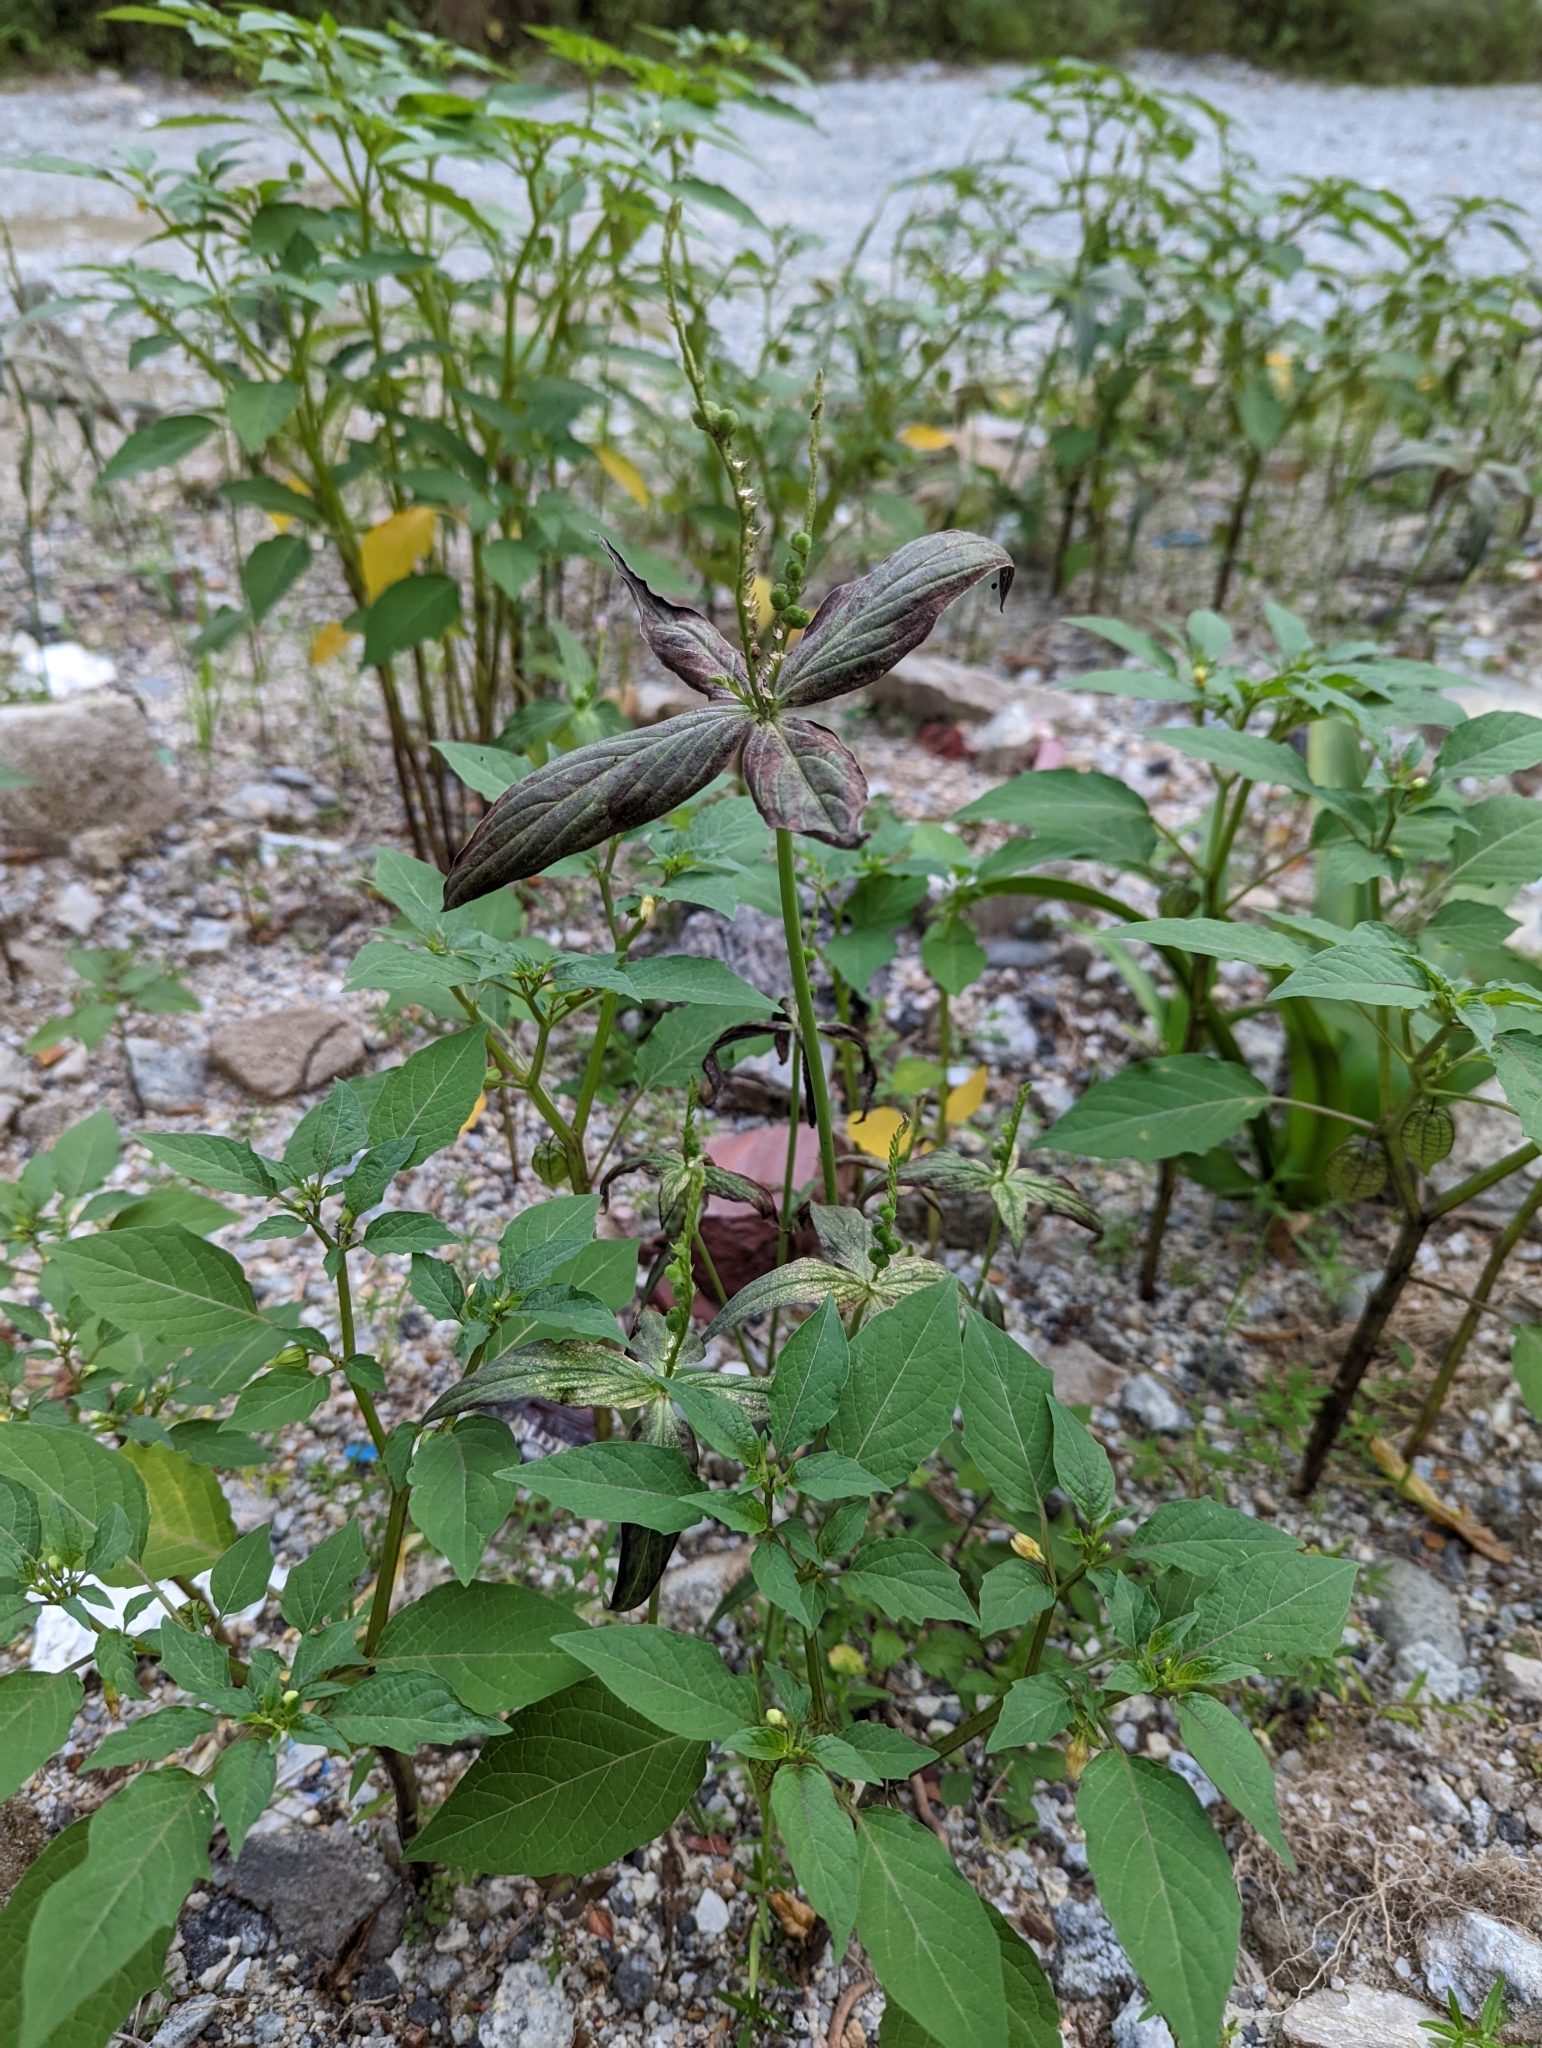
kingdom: Plantae
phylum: Tracheophyta
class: Magnoliopsida
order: Gentianales
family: Loganiaceae
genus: Spigelia
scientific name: Spigelia anthelmia
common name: West indian-pink
